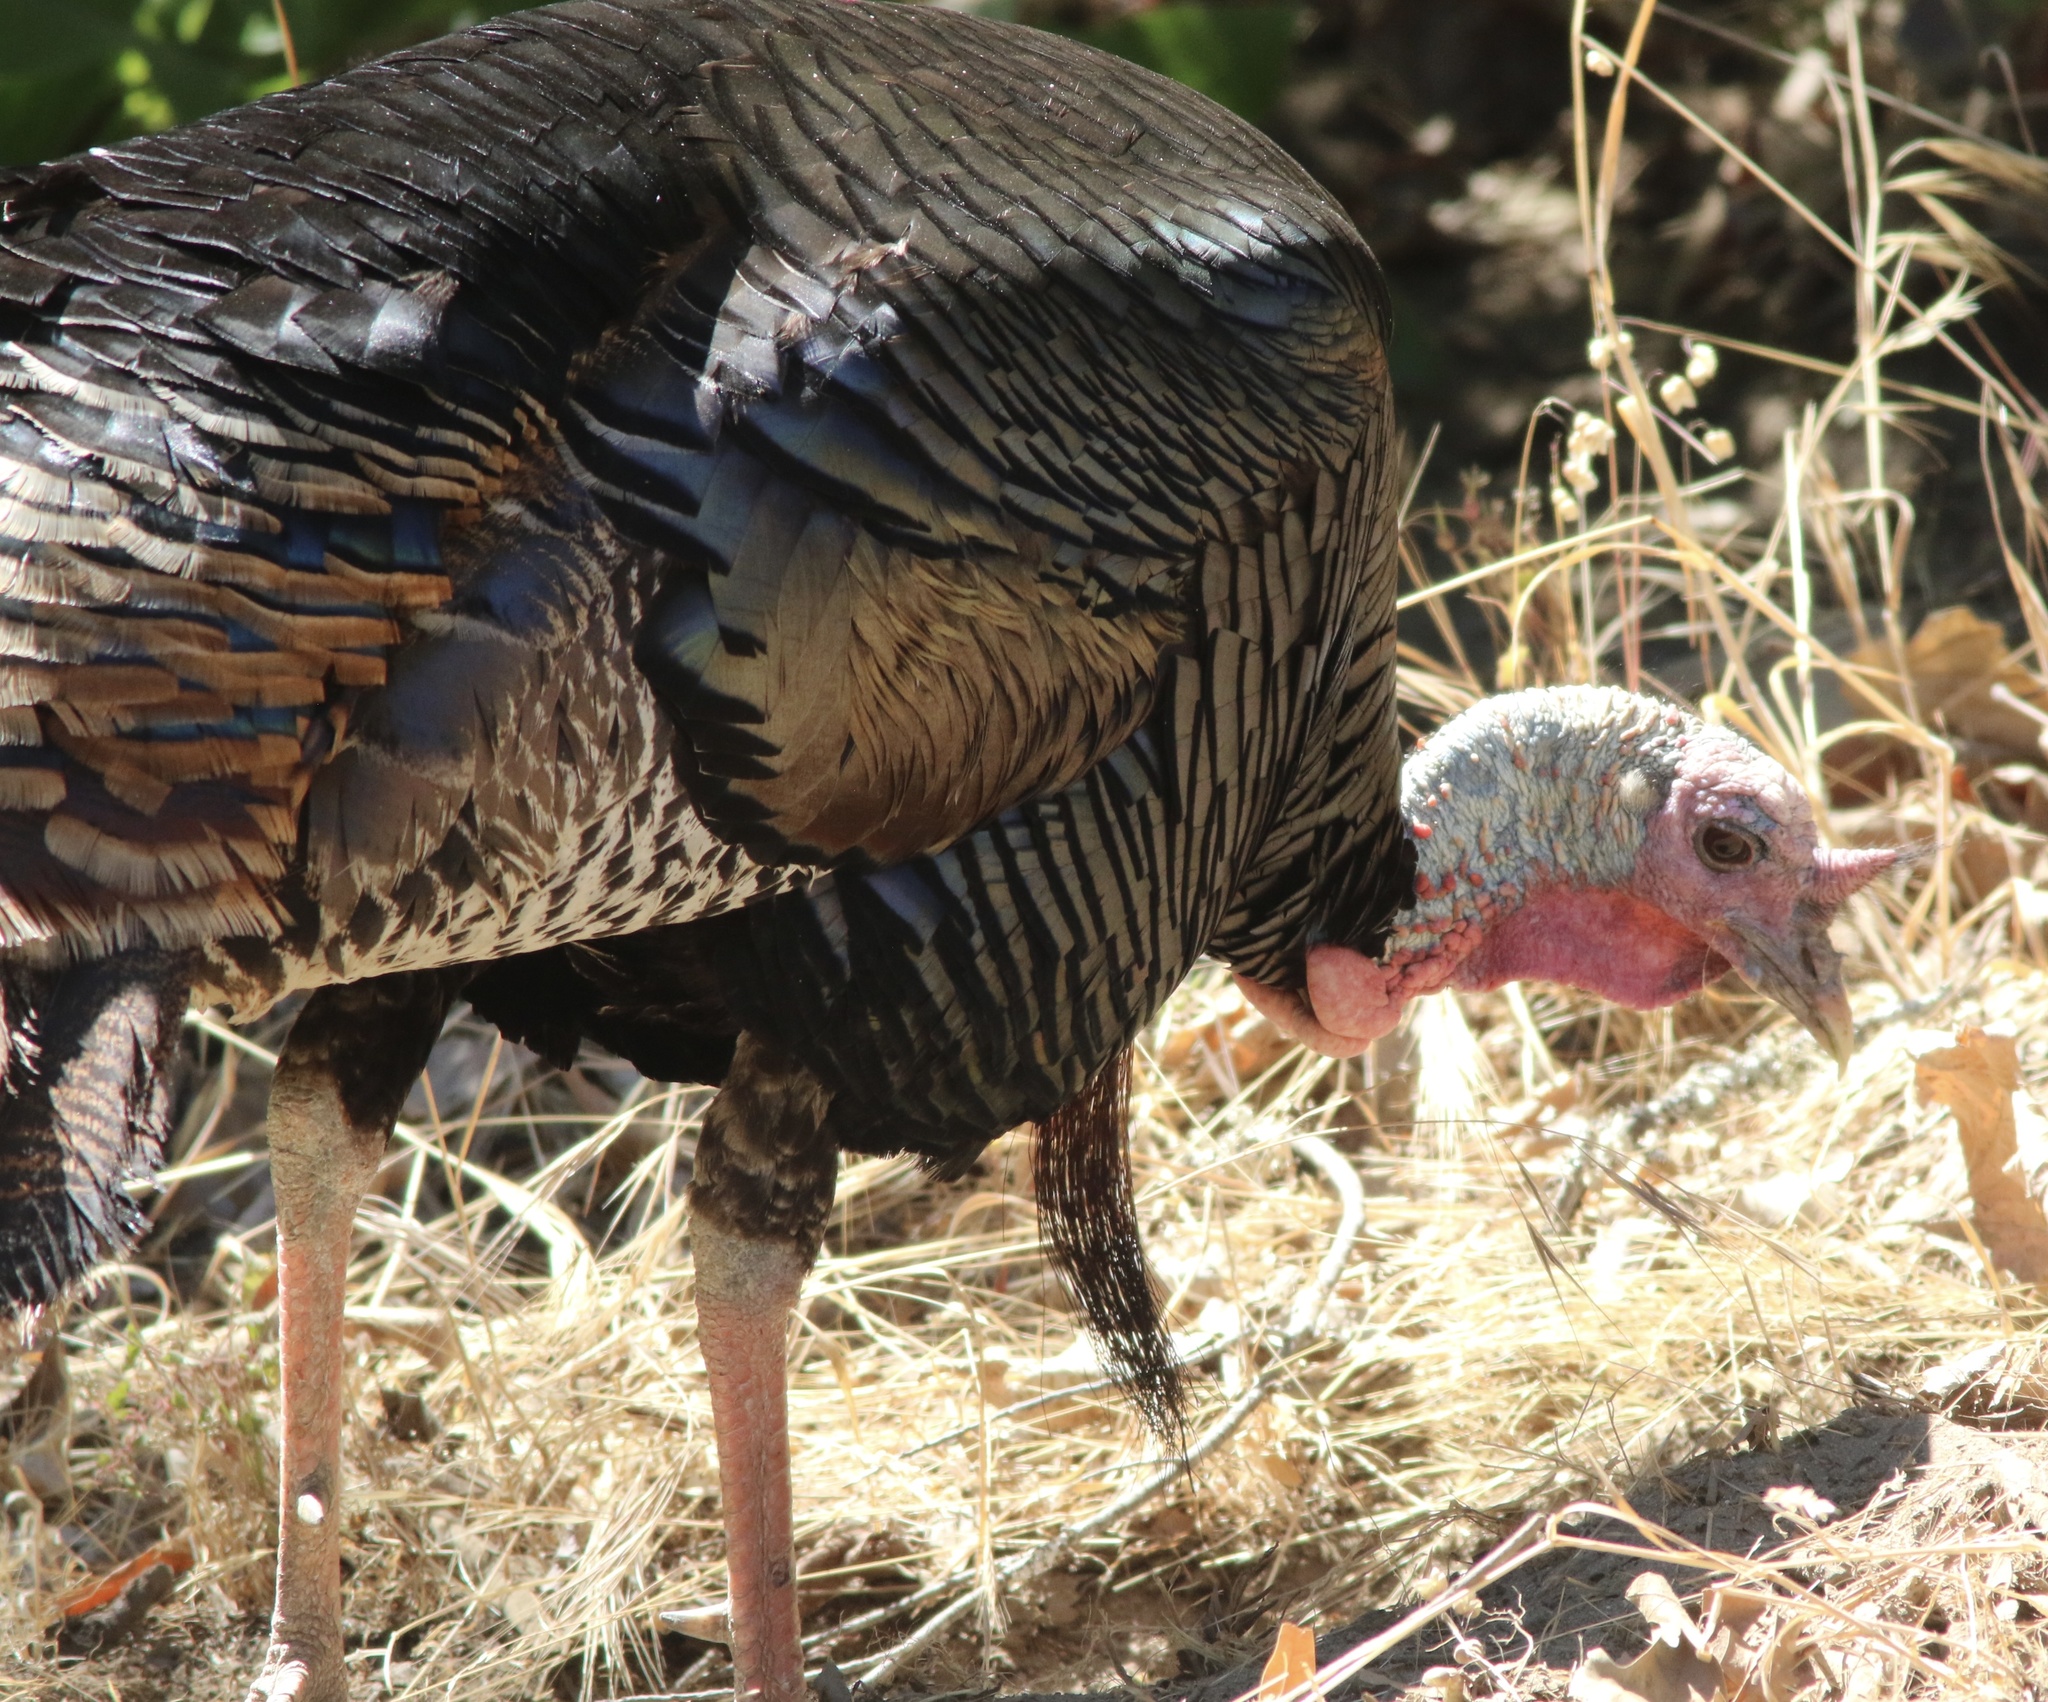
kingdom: Animalia
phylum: Chordata
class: Aves
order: Galliformes
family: Phasianidae
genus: Meleagris
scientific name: Meleagris gallopavo
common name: Wild turkey
